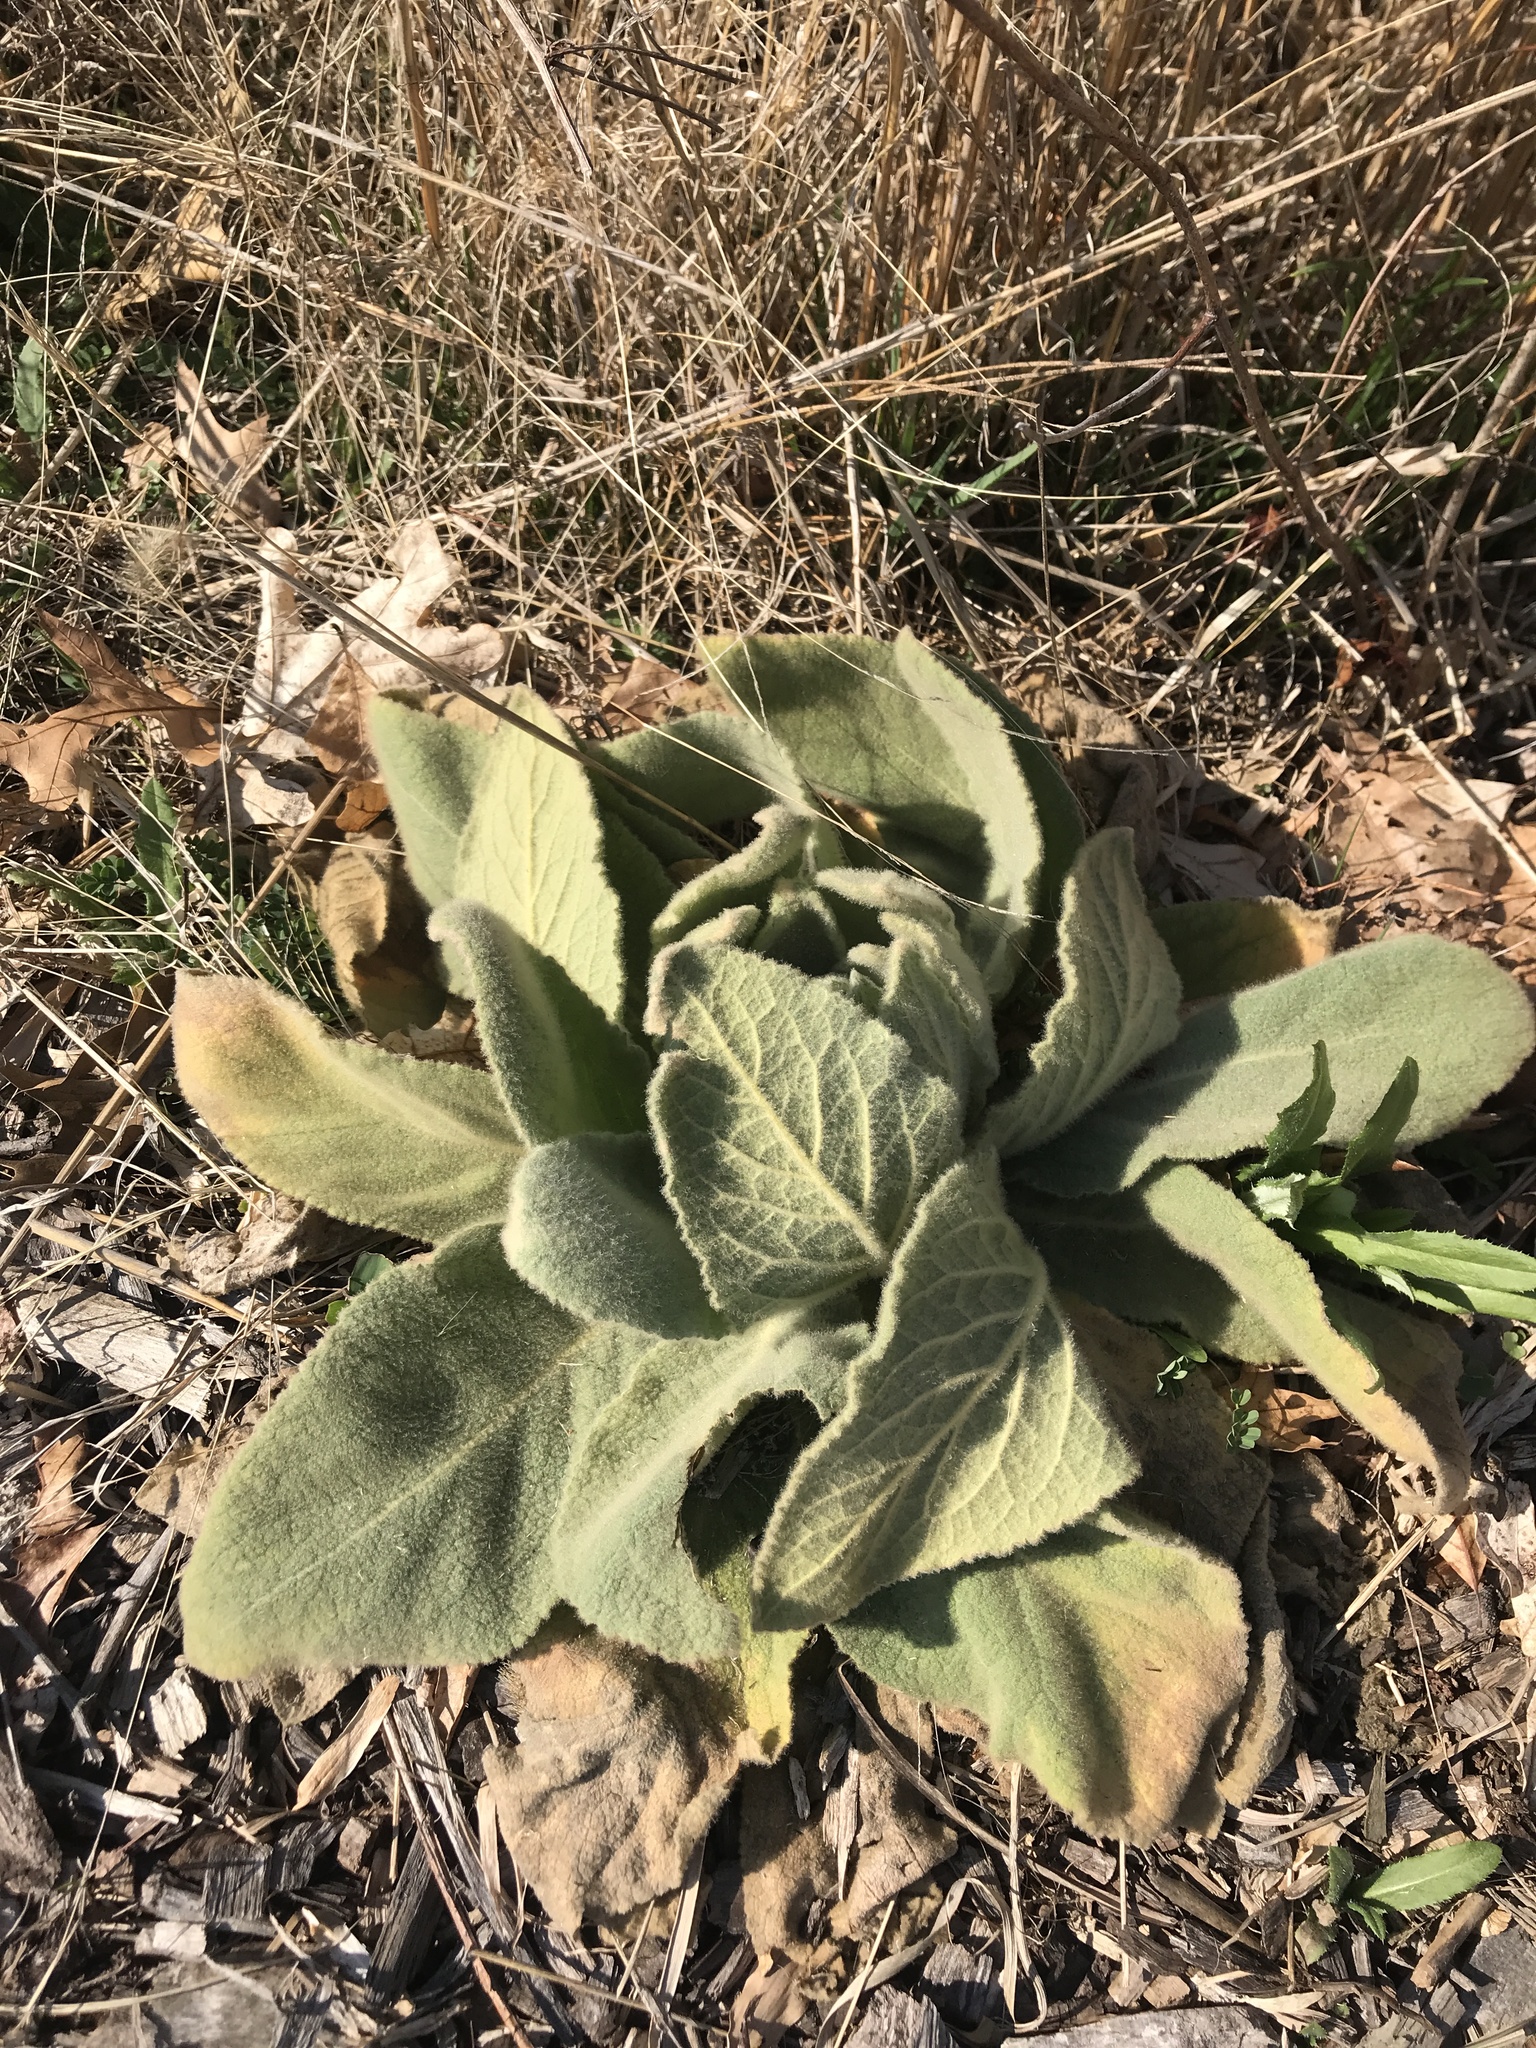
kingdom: Plantae
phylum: Tracheophyta
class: Magnoliopsida
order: Lamiales
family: Scrophulariaceae
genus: Verbascum
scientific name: Verbascum thapsus
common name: Common mullein
